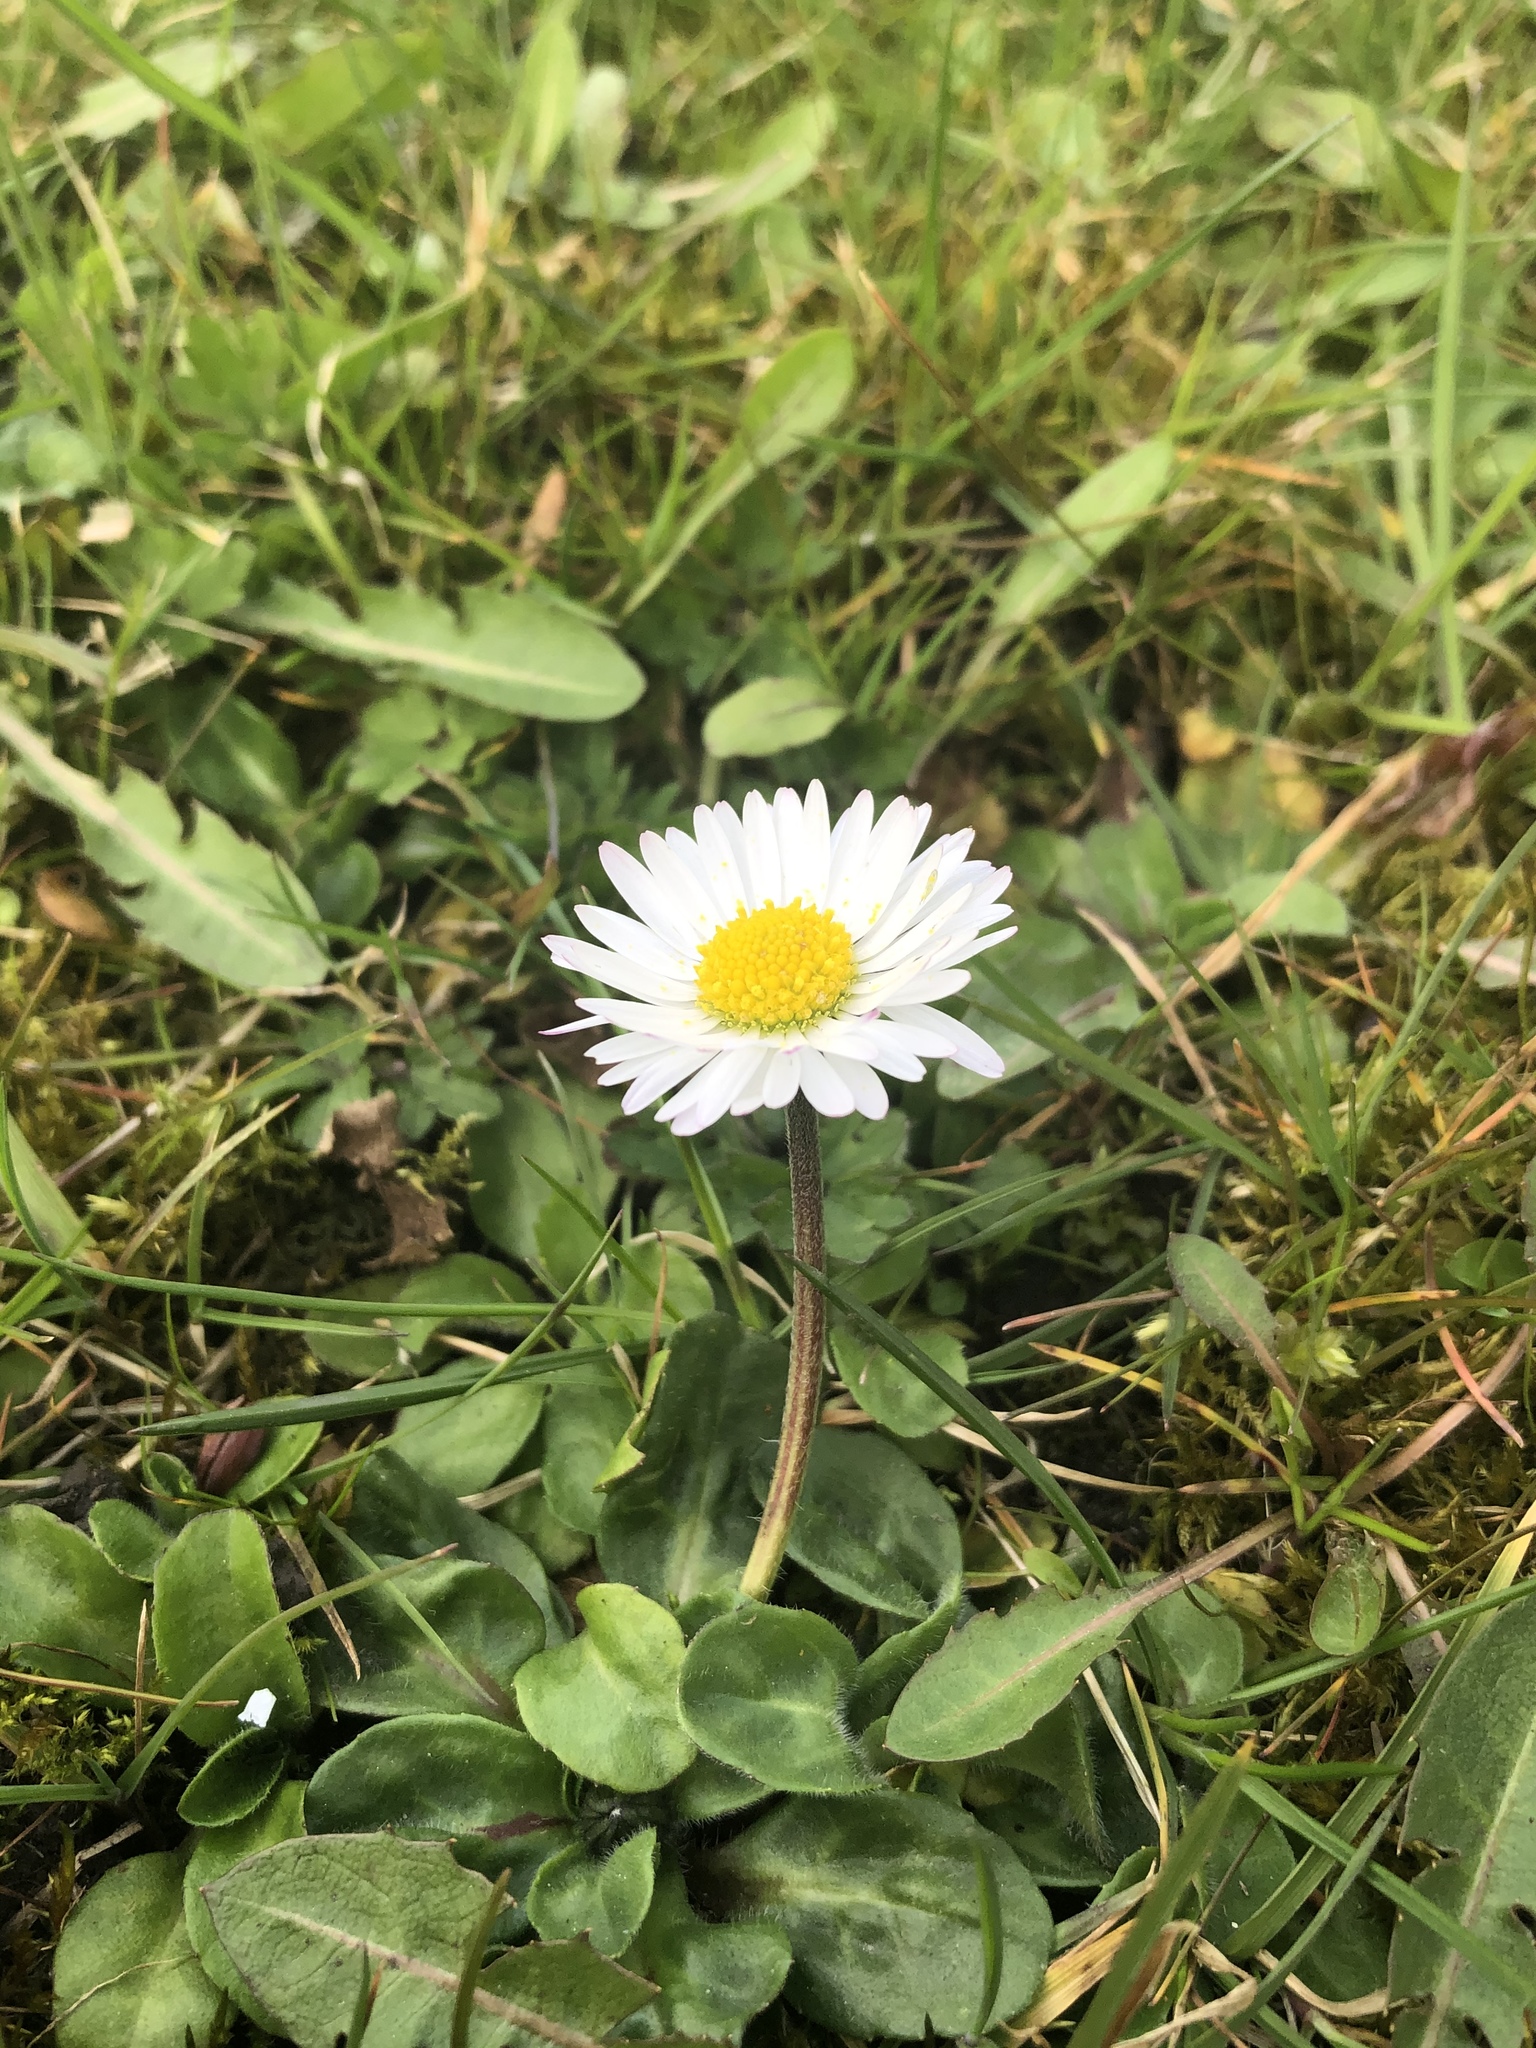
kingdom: Plantae
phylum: Tracheophyta
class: Magnoliopsida
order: Asterales
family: Asteraceae
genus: Bellis
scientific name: Bellis perennis
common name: Lawndaisy
